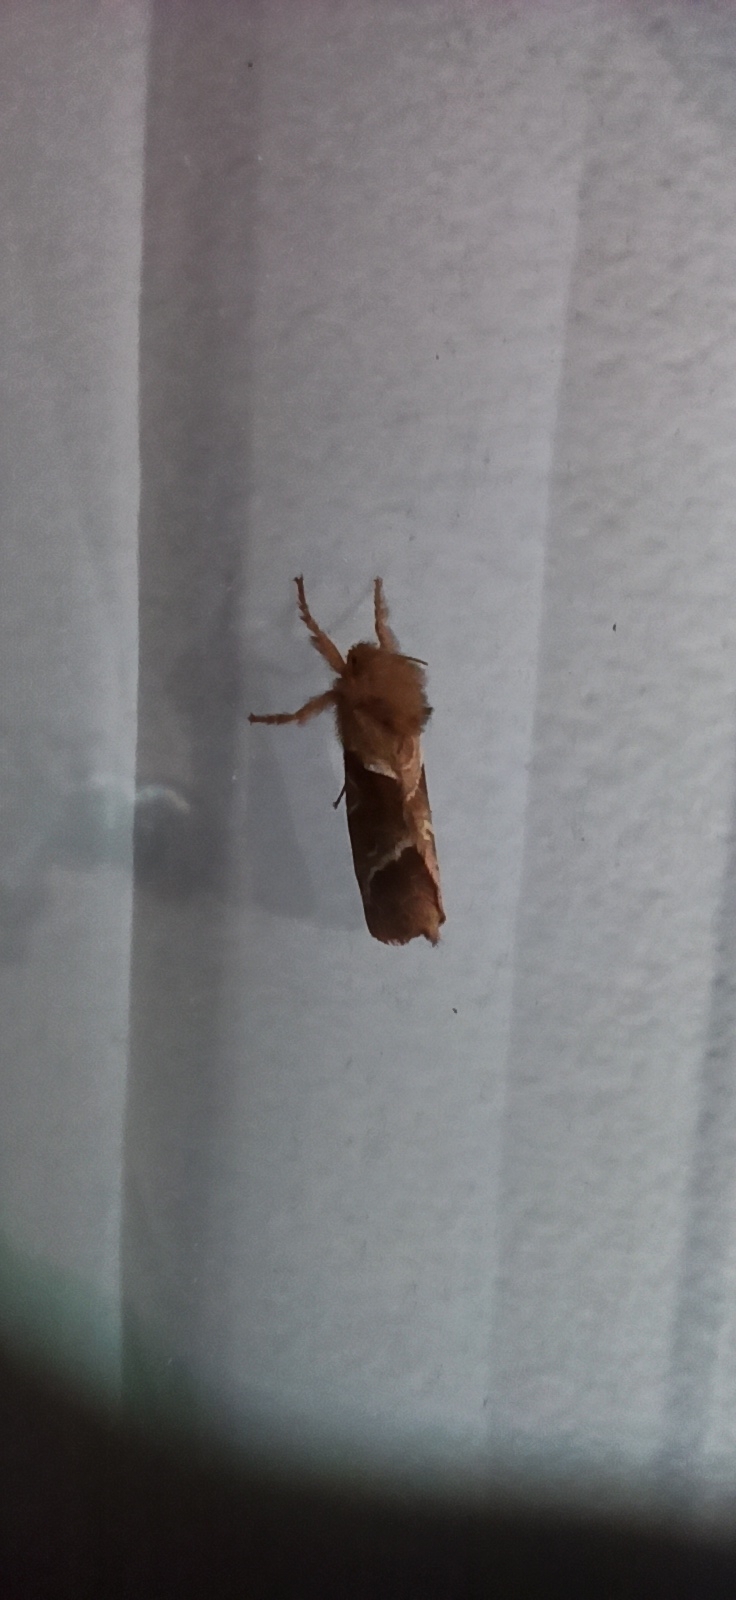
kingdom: Animalia
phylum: Arthropoda
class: Insecta
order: Lepidoptera
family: Hepialidae
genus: Triodia
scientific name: Triodia sylvina
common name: Orange swift
